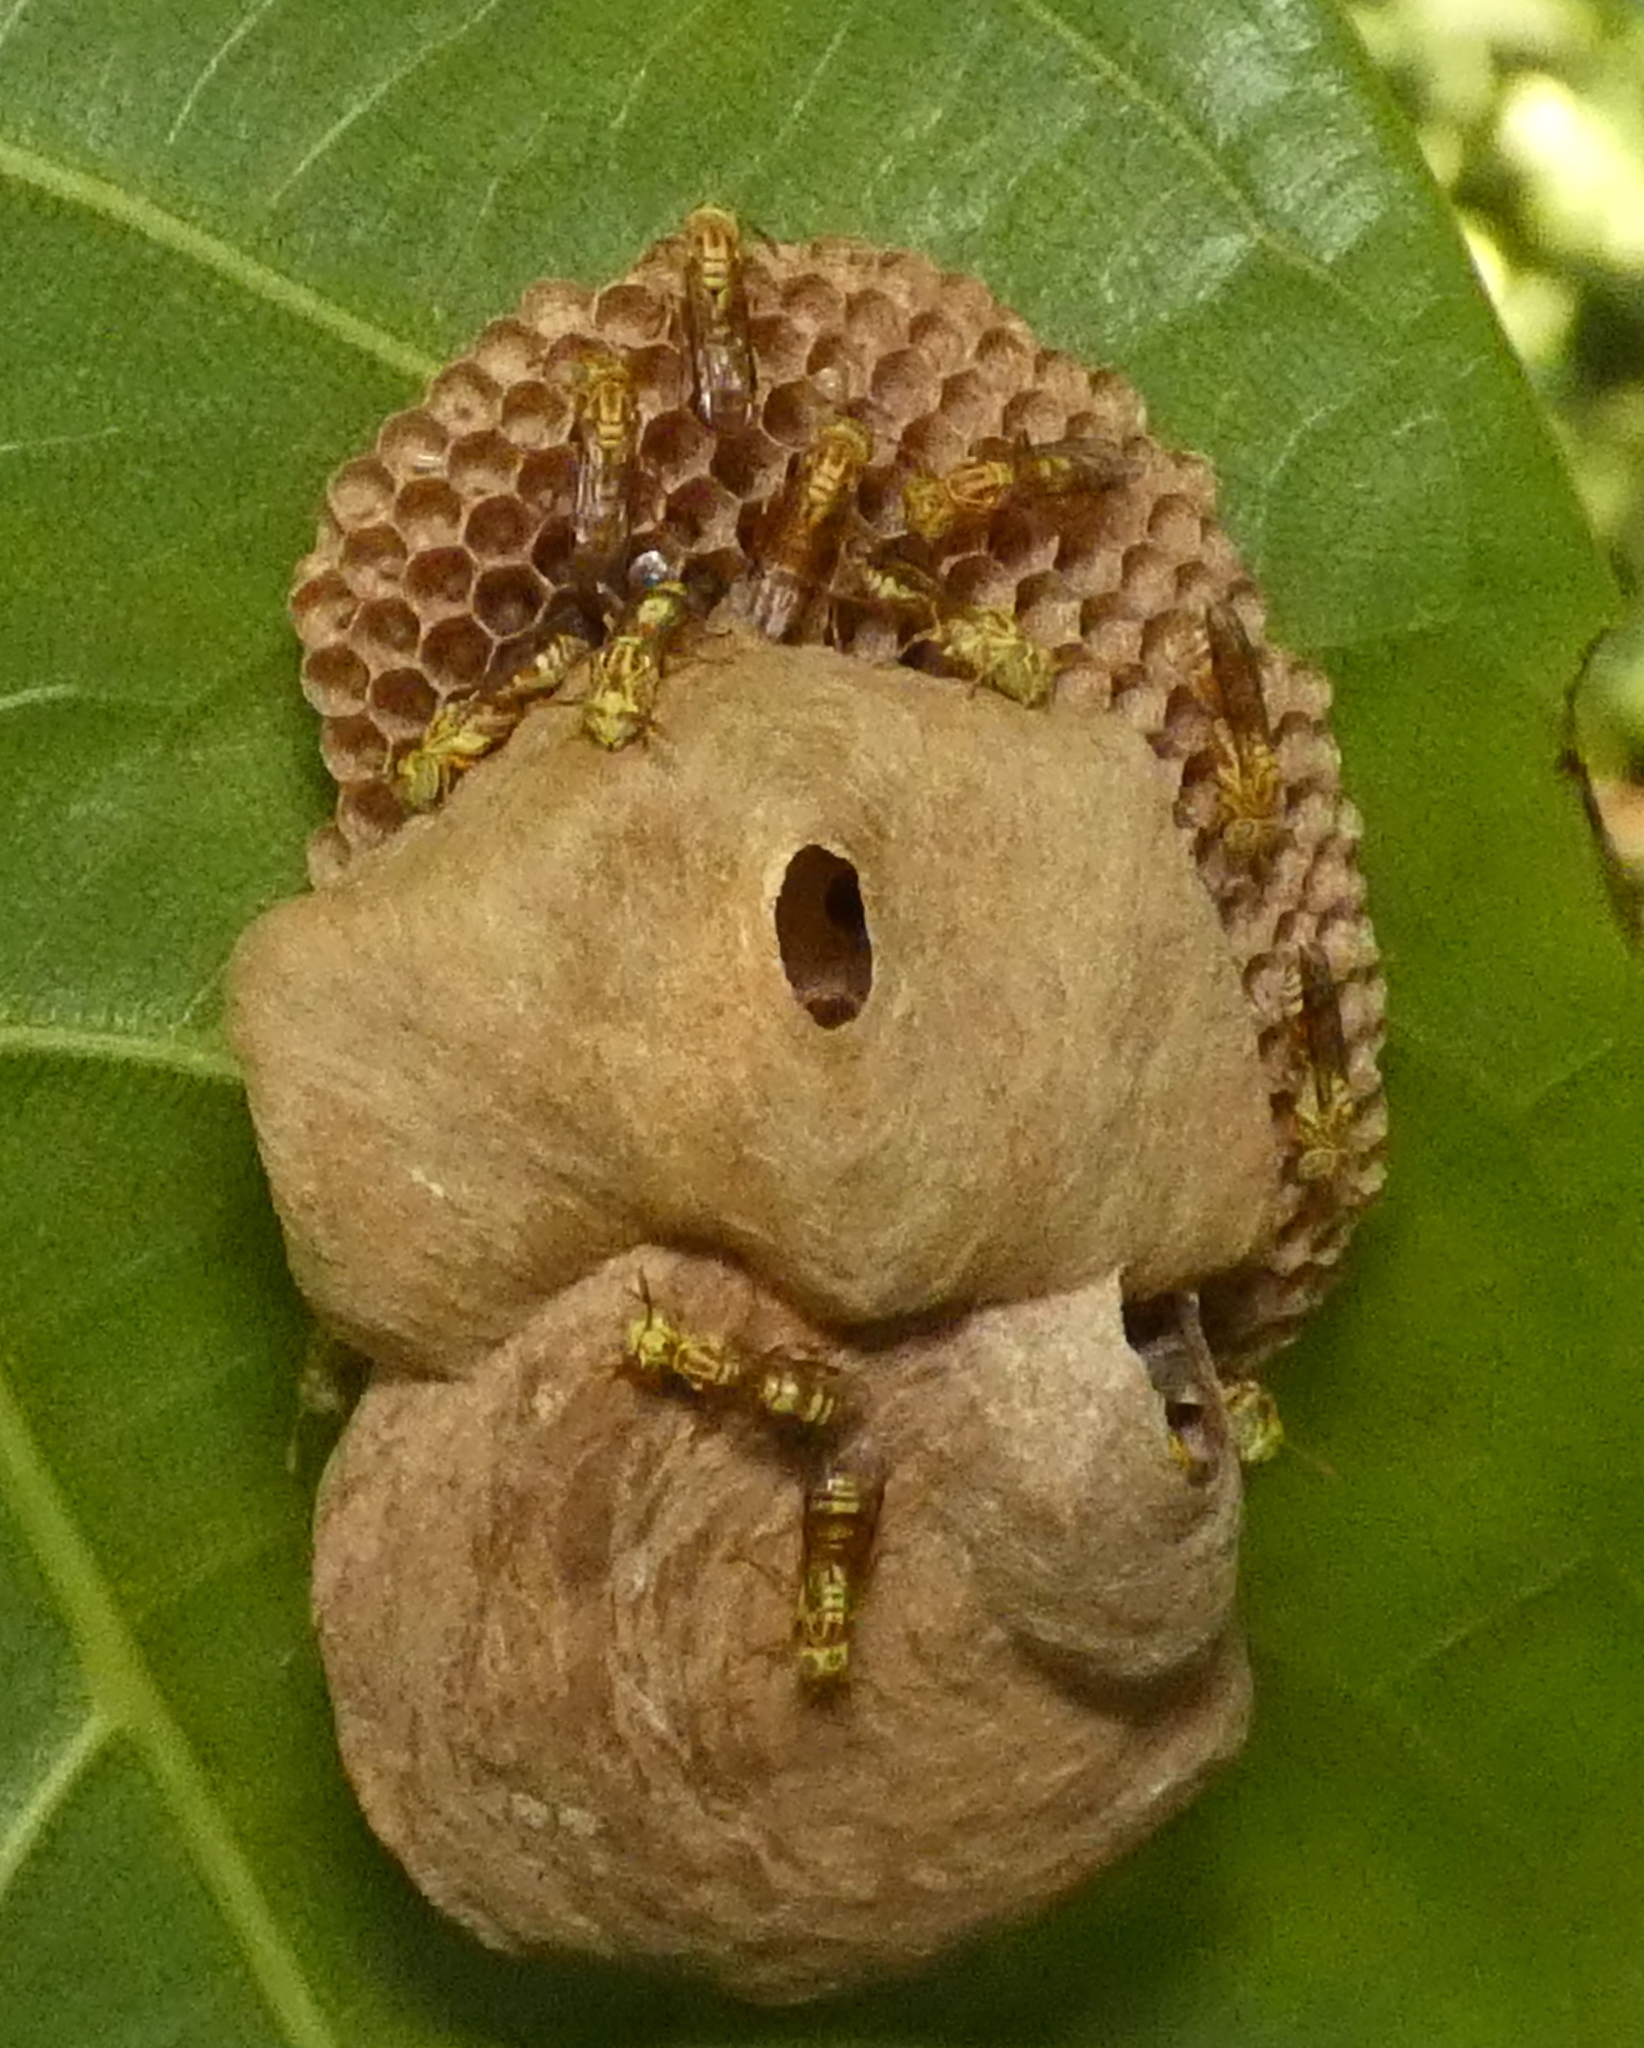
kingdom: Animalia
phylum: Arthropoda
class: Insecta
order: Hymenoptera
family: Vespidae
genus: Protopolybia
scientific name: Protopolybia potiguara
